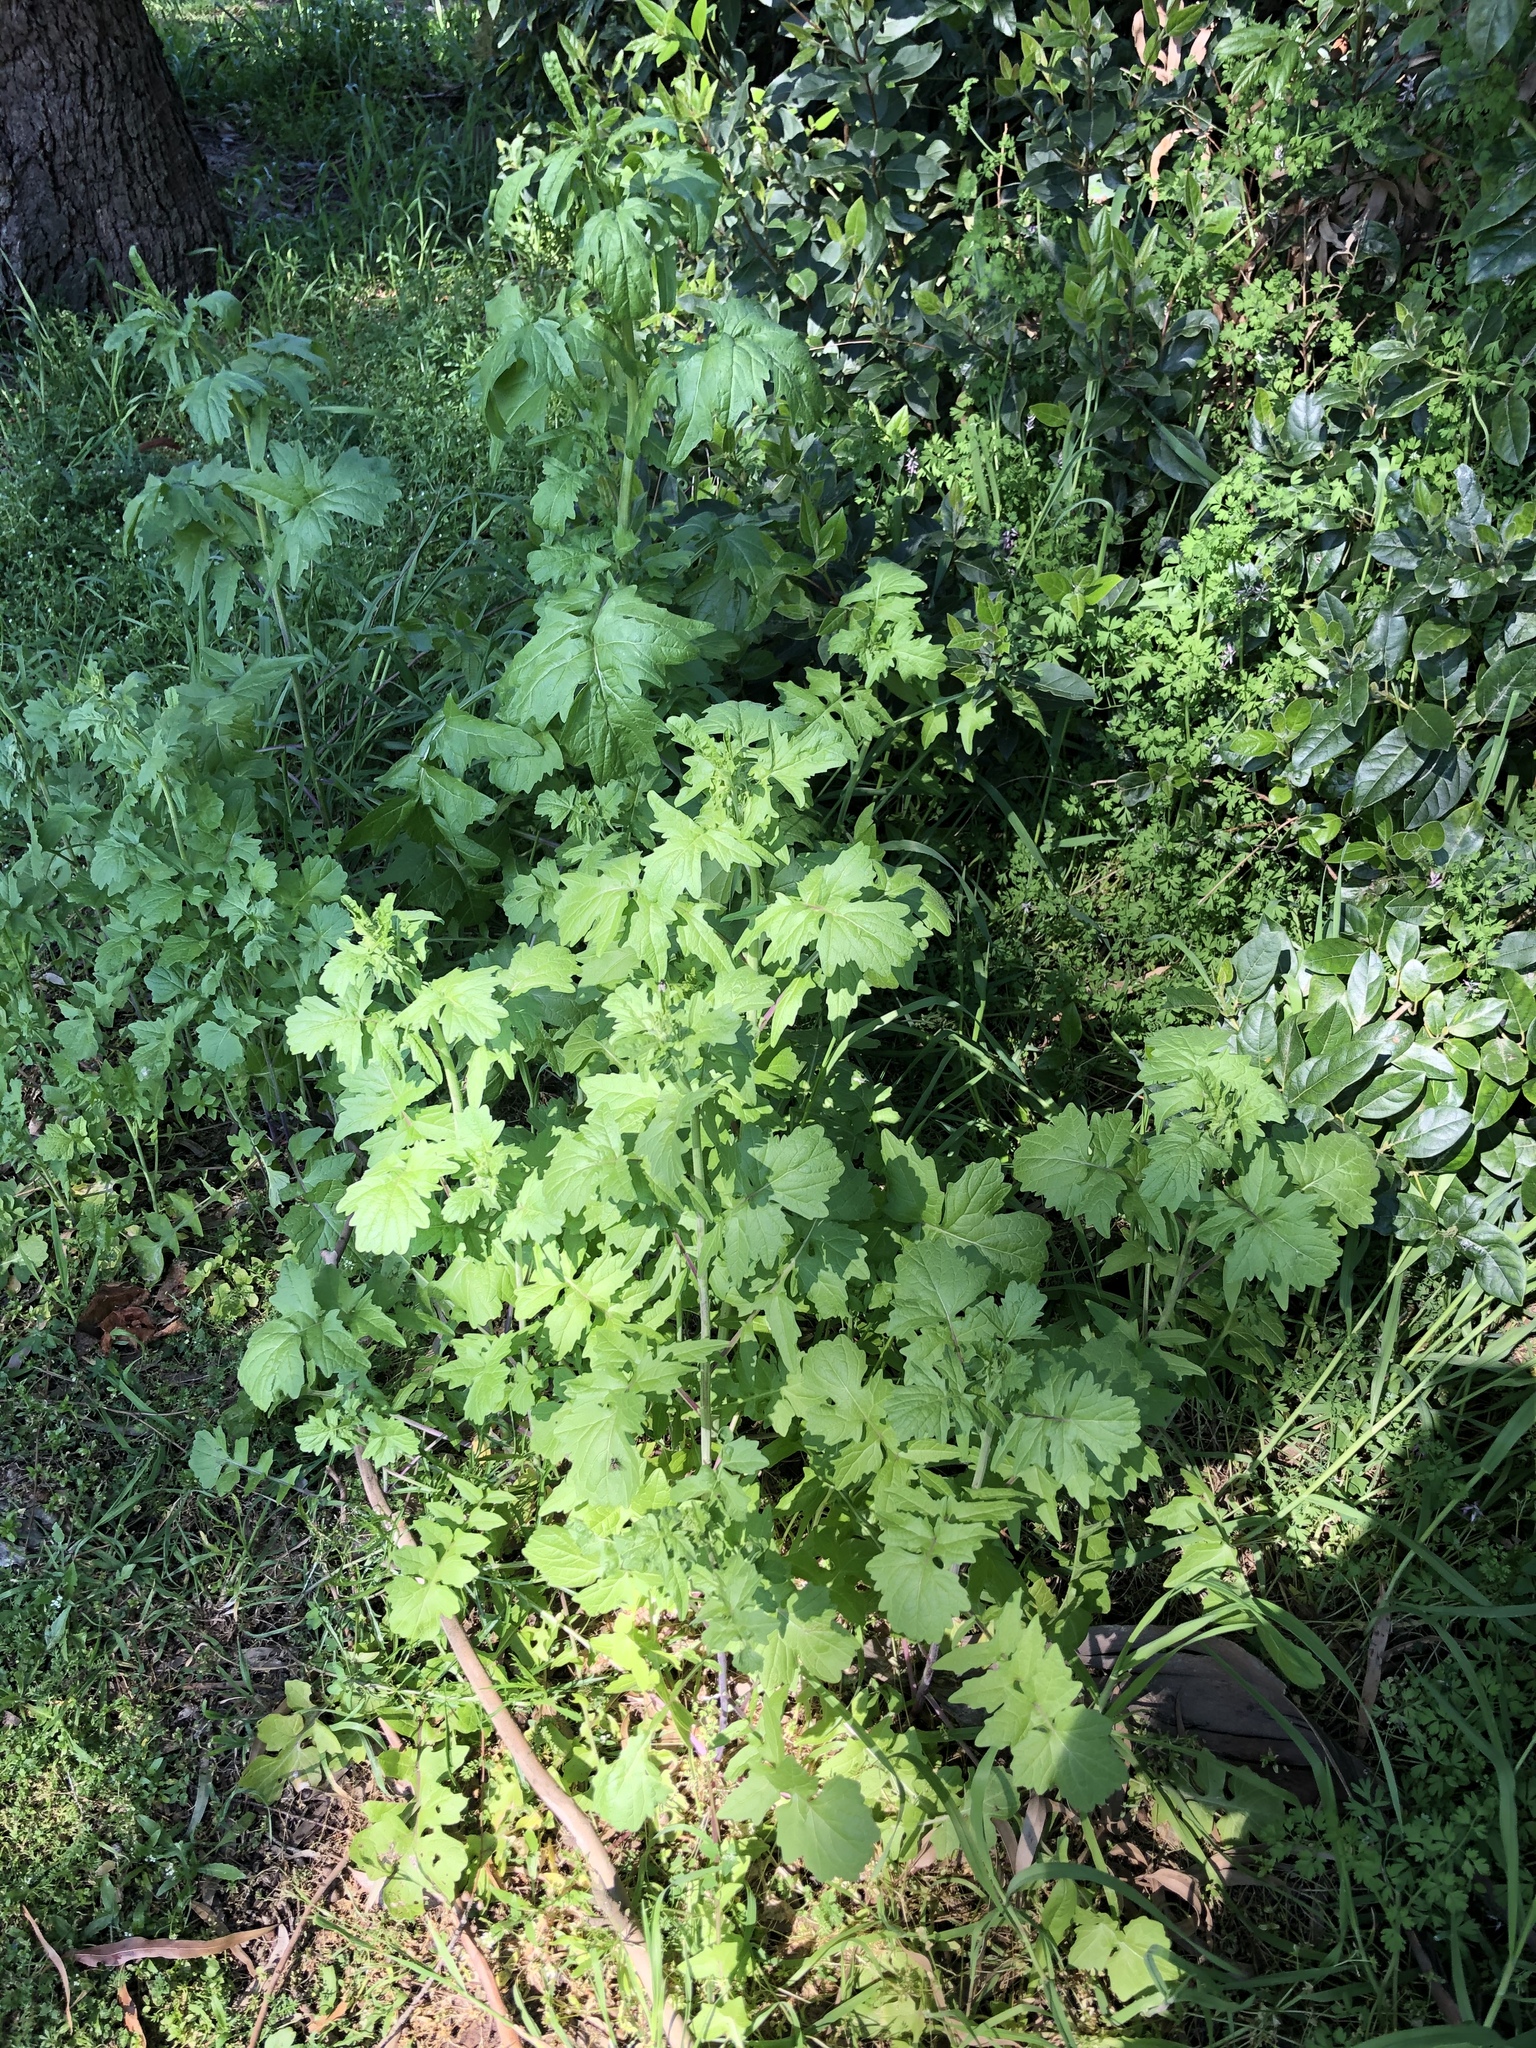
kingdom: Plantae
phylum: Tracheophyta
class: Magnoliopsida
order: Brassicales
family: Brassicaceae
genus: Sisymbrium
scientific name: Sisymbrium officinale
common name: Hedge mustard
